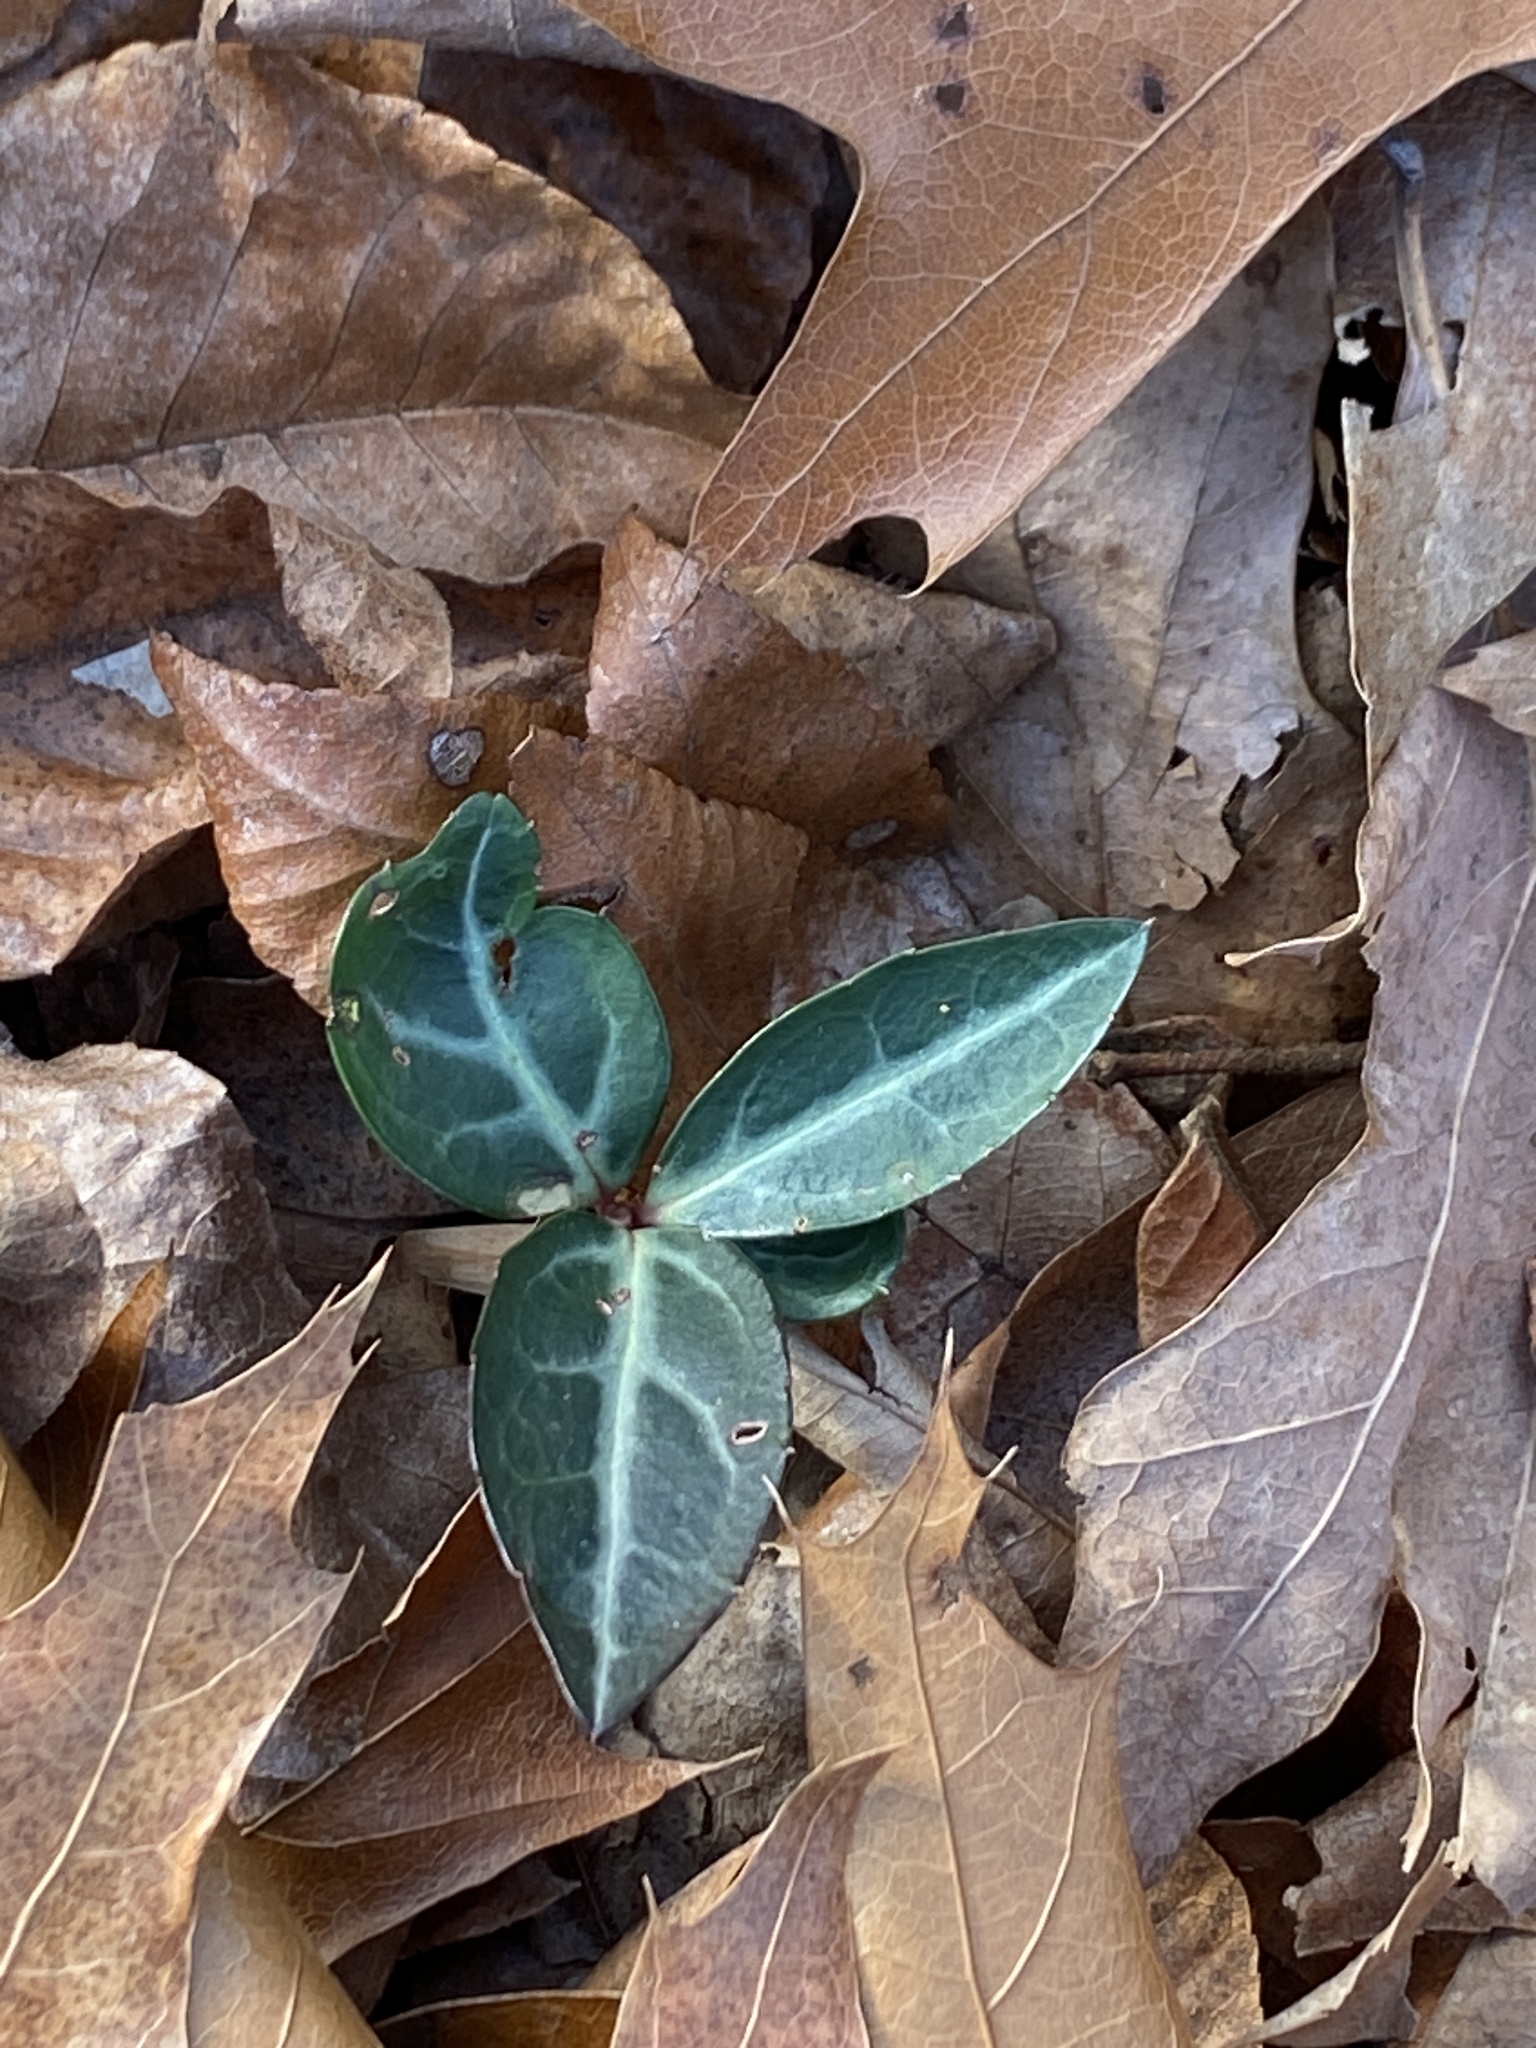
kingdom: Plantae
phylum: Tracheophyta
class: Magnoliopsida
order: Ericales
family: Ericaceae
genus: Chimaphila
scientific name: Chimaphila maculata
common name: Spotted pipsissewa
